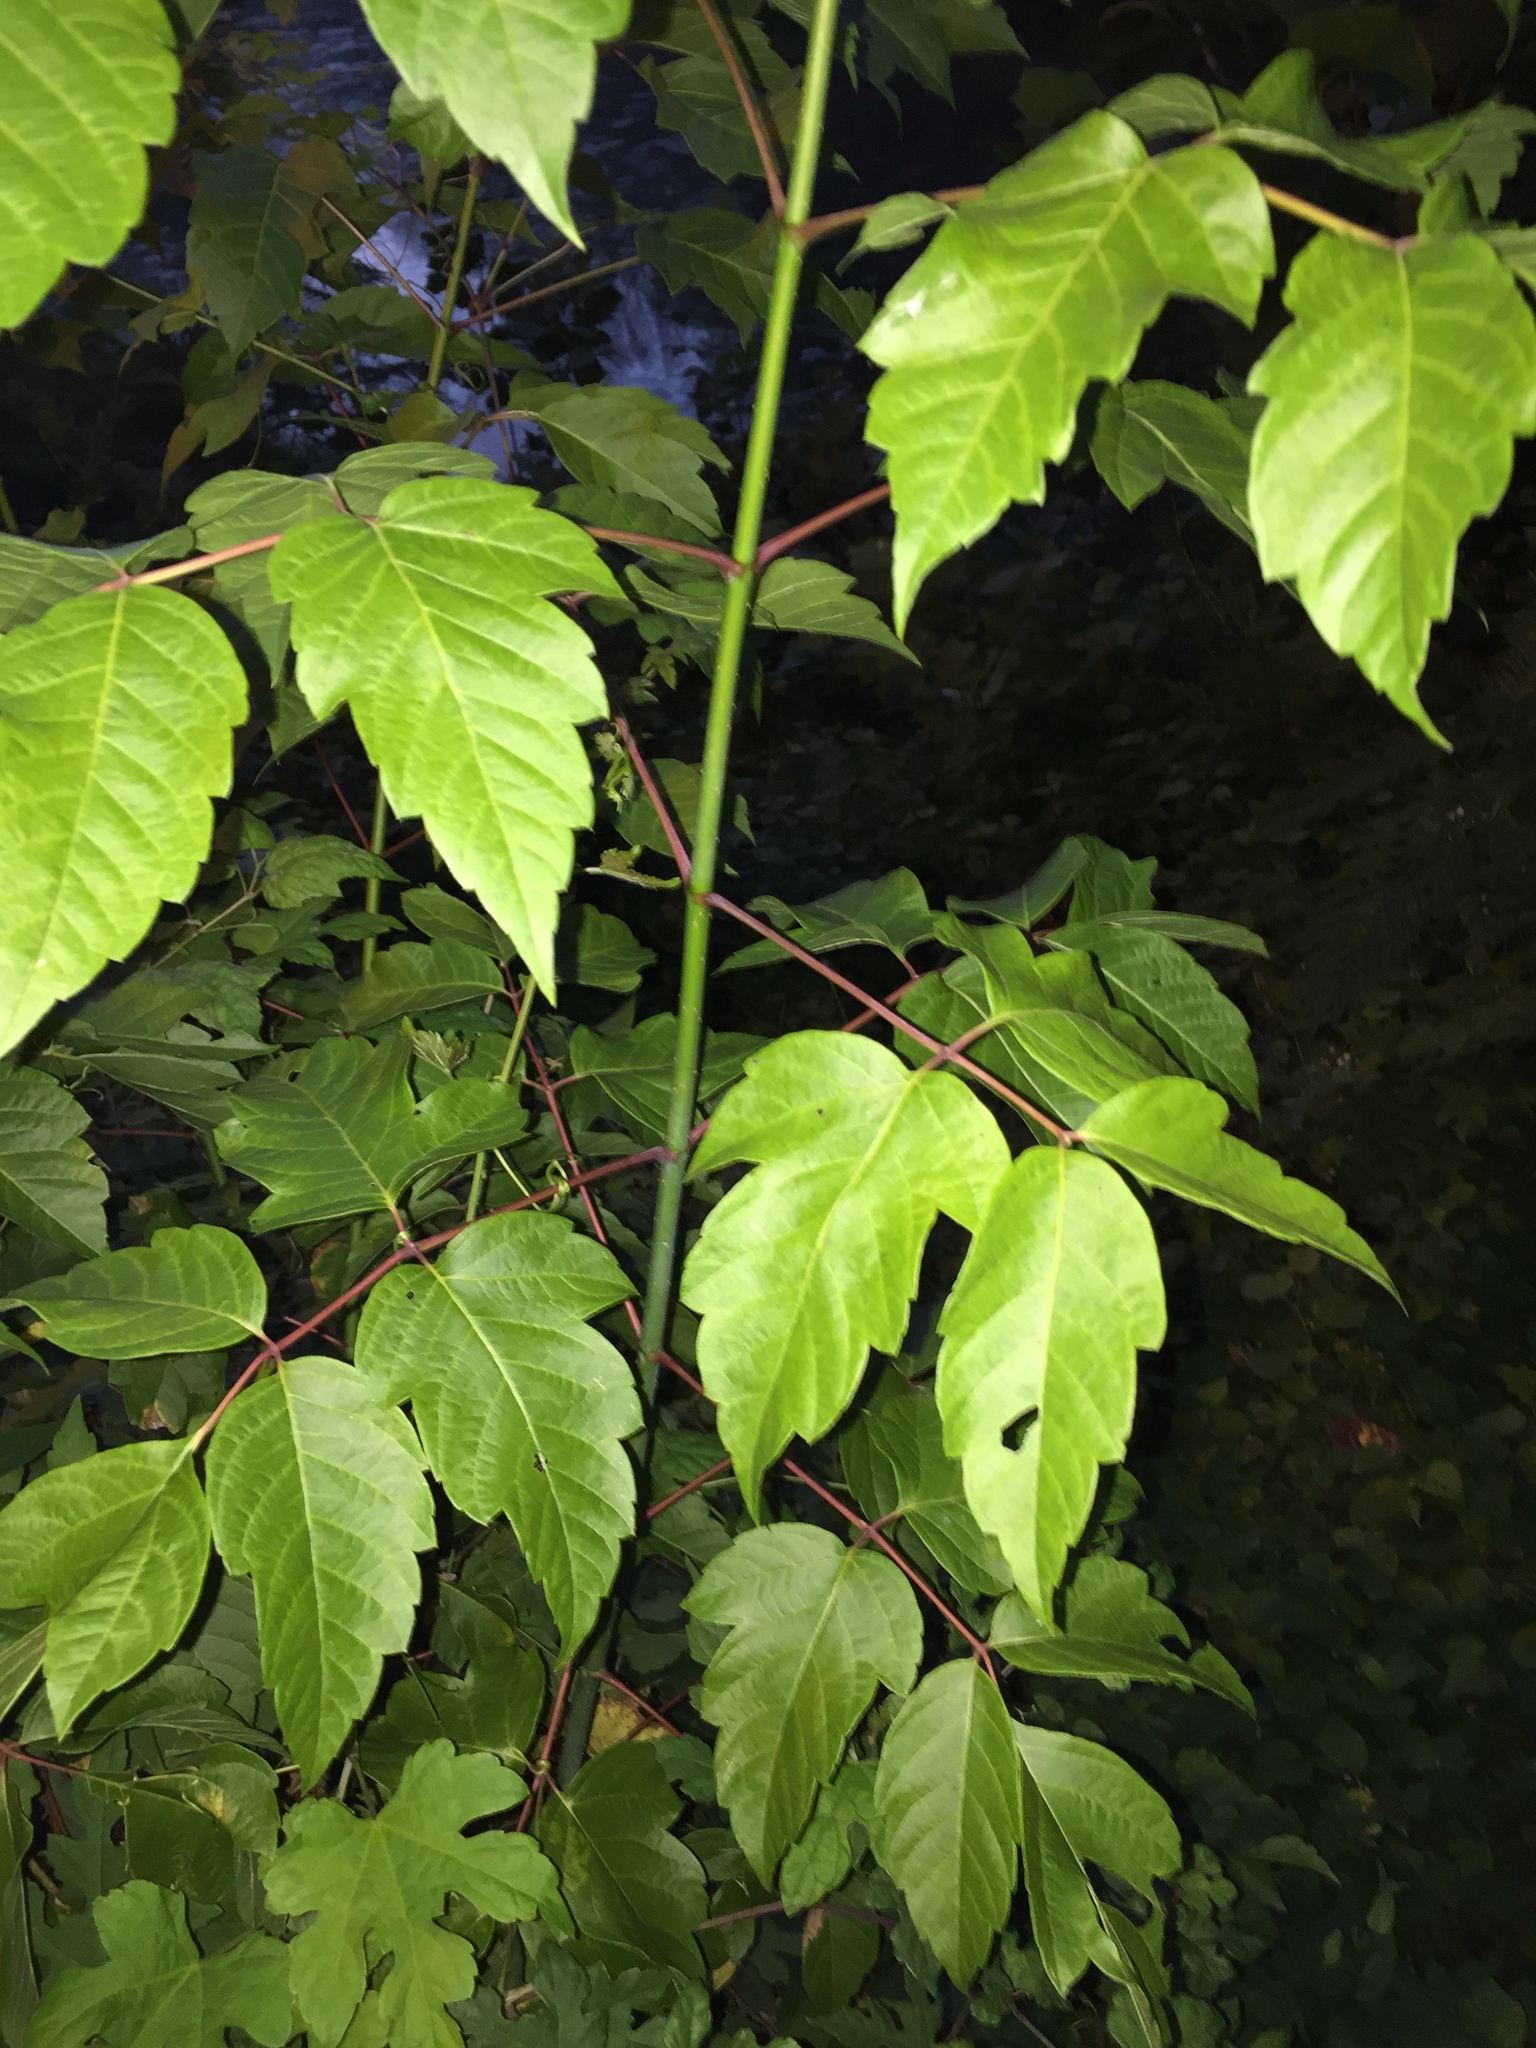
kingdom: Plantae
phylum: Tracheophyta
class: Magnoliopsida
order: Sapindales
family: Sapindaceae
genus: Acer
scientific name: Acer negundo
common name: Ashleaf maple
